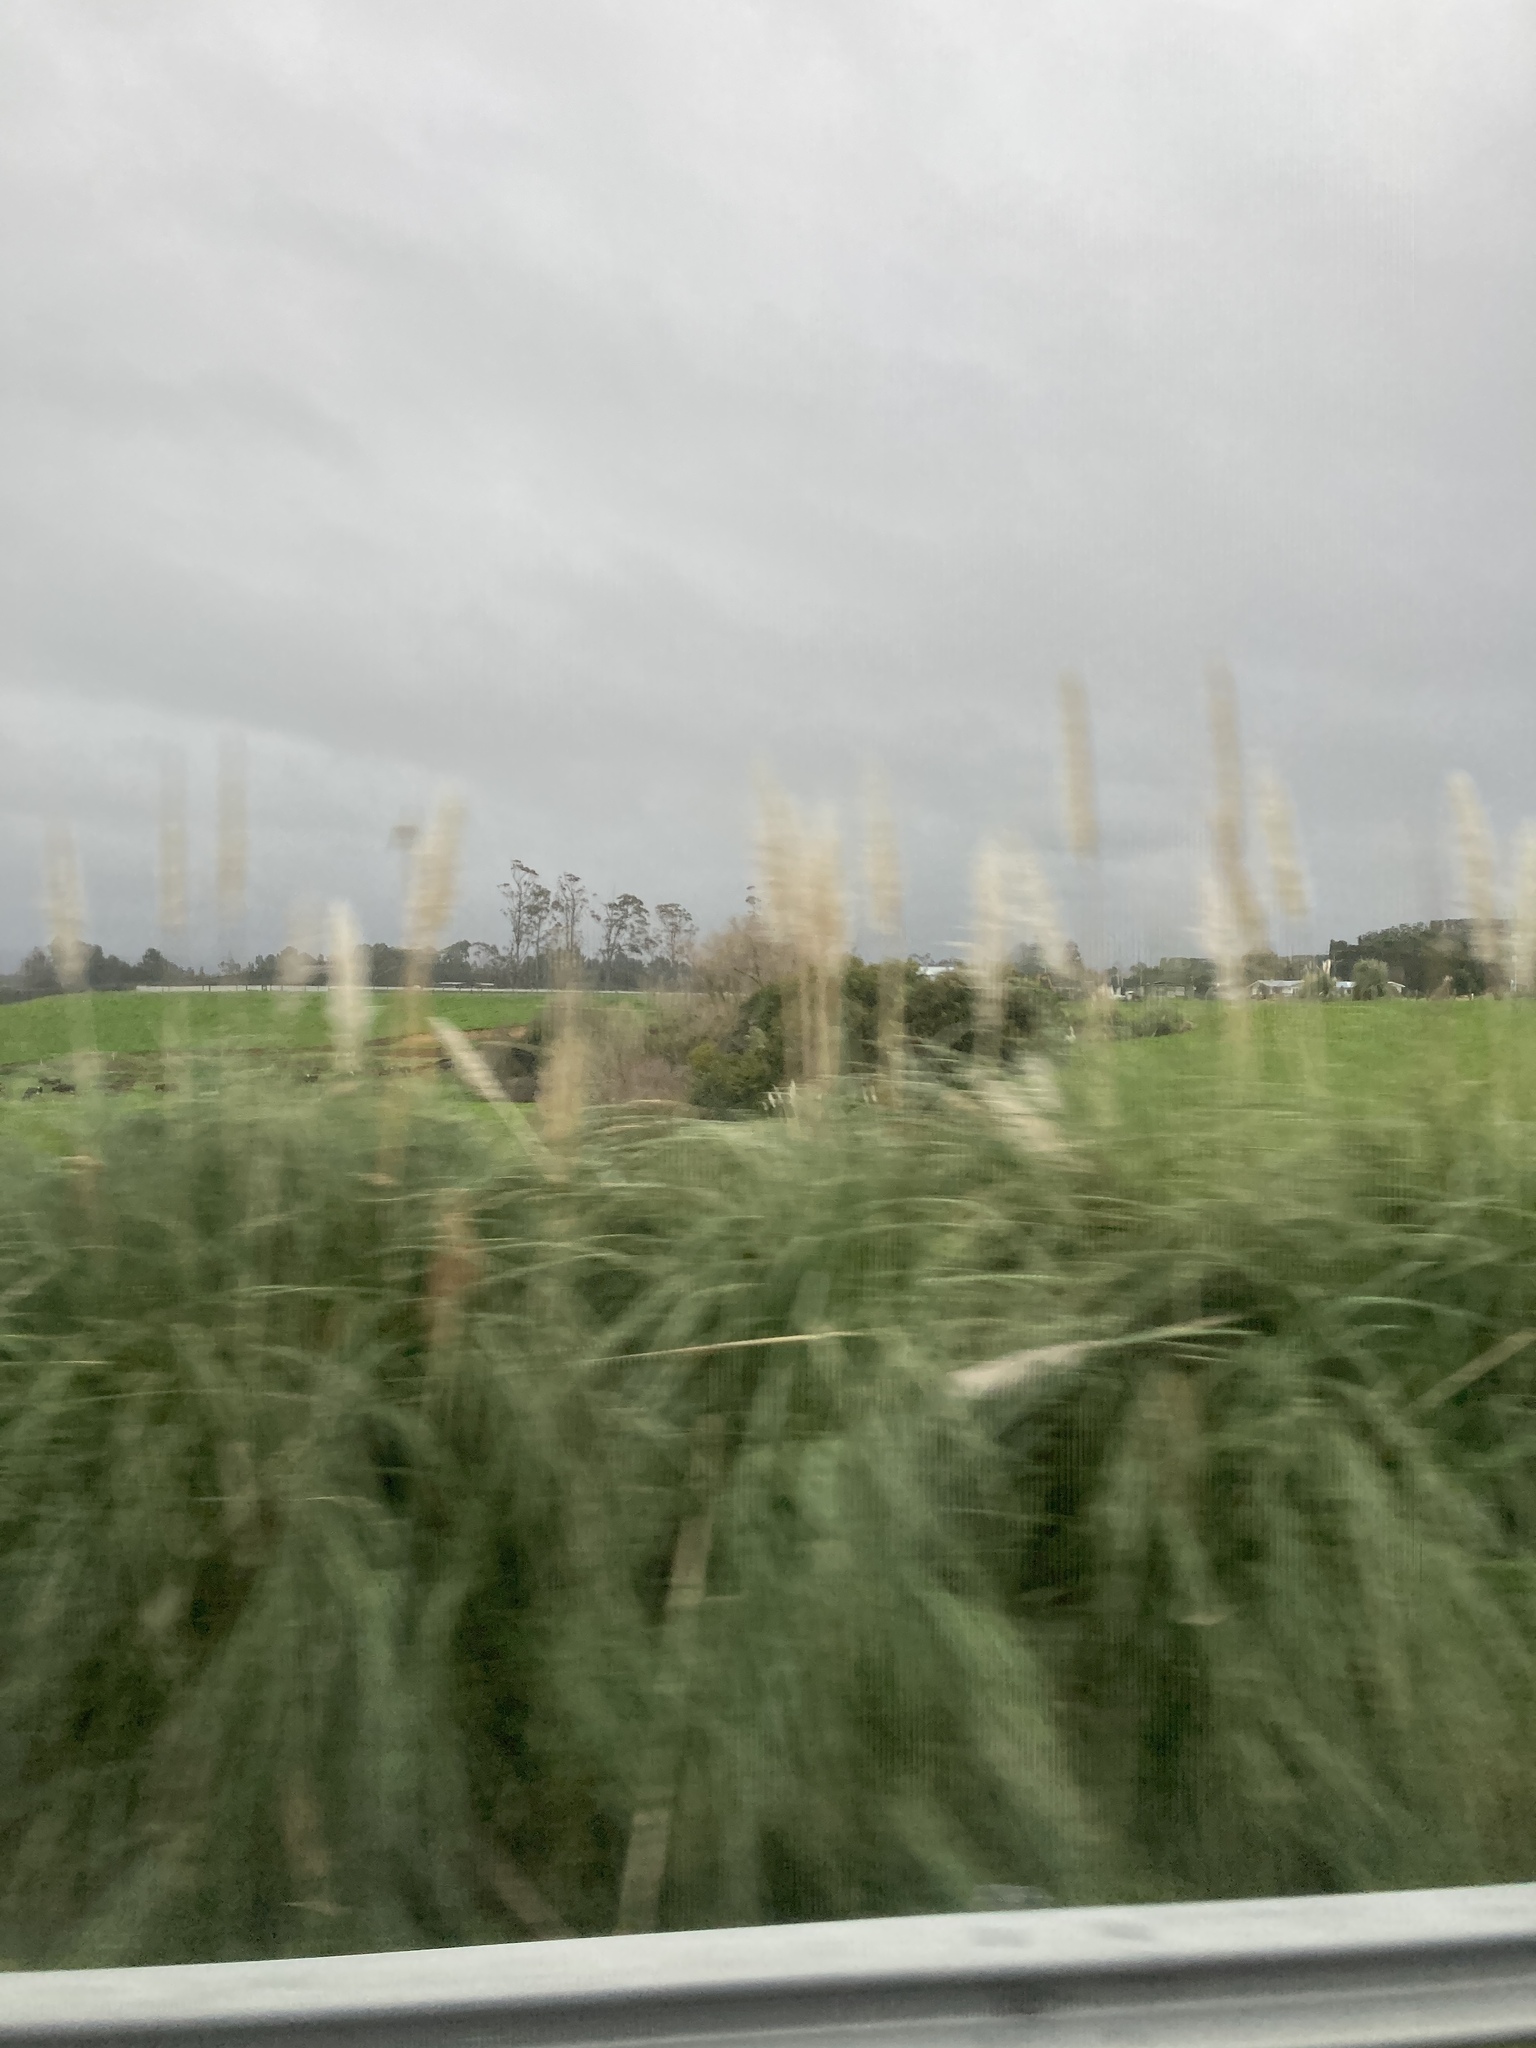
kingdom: Plantae
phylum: Tracheophyta
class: Liliopsida
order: Poales
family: Poaceae
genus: Cortaderia
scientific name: Cortaderia selloana
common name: Uruguayan pampas grass
